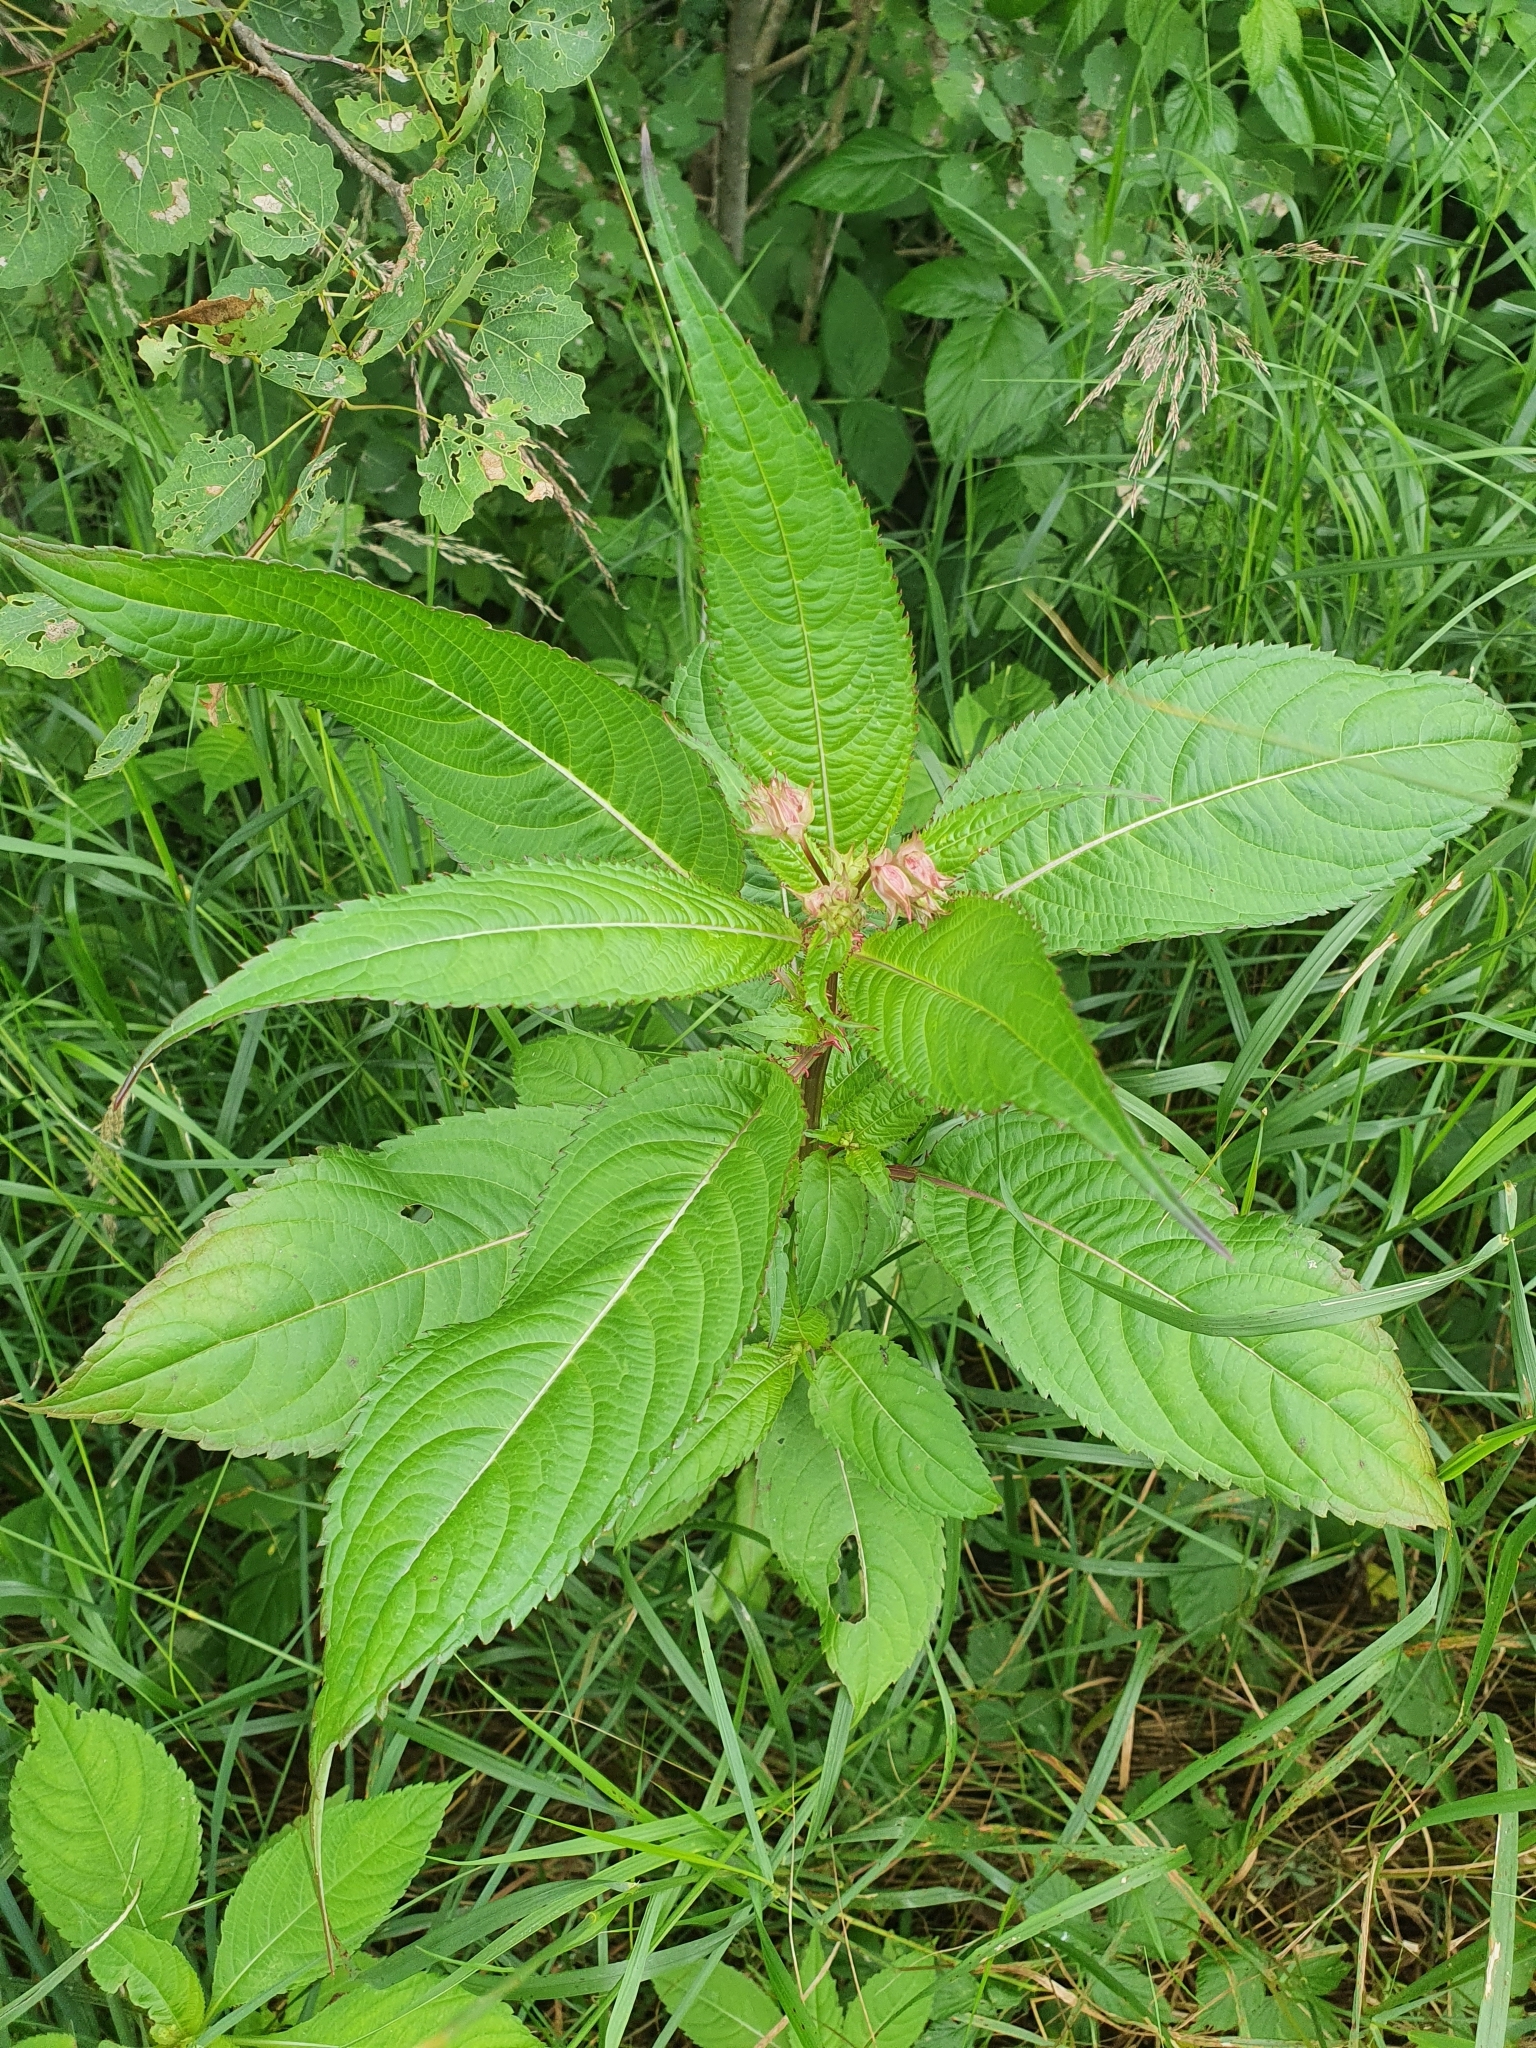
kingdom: Plantae
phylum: Tracheophyta
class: Magnoliopsida
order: Ericales
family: Balsaminaceae
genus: Impatiens
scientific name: Impatiens glandulifera
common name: Himalayan balsam
